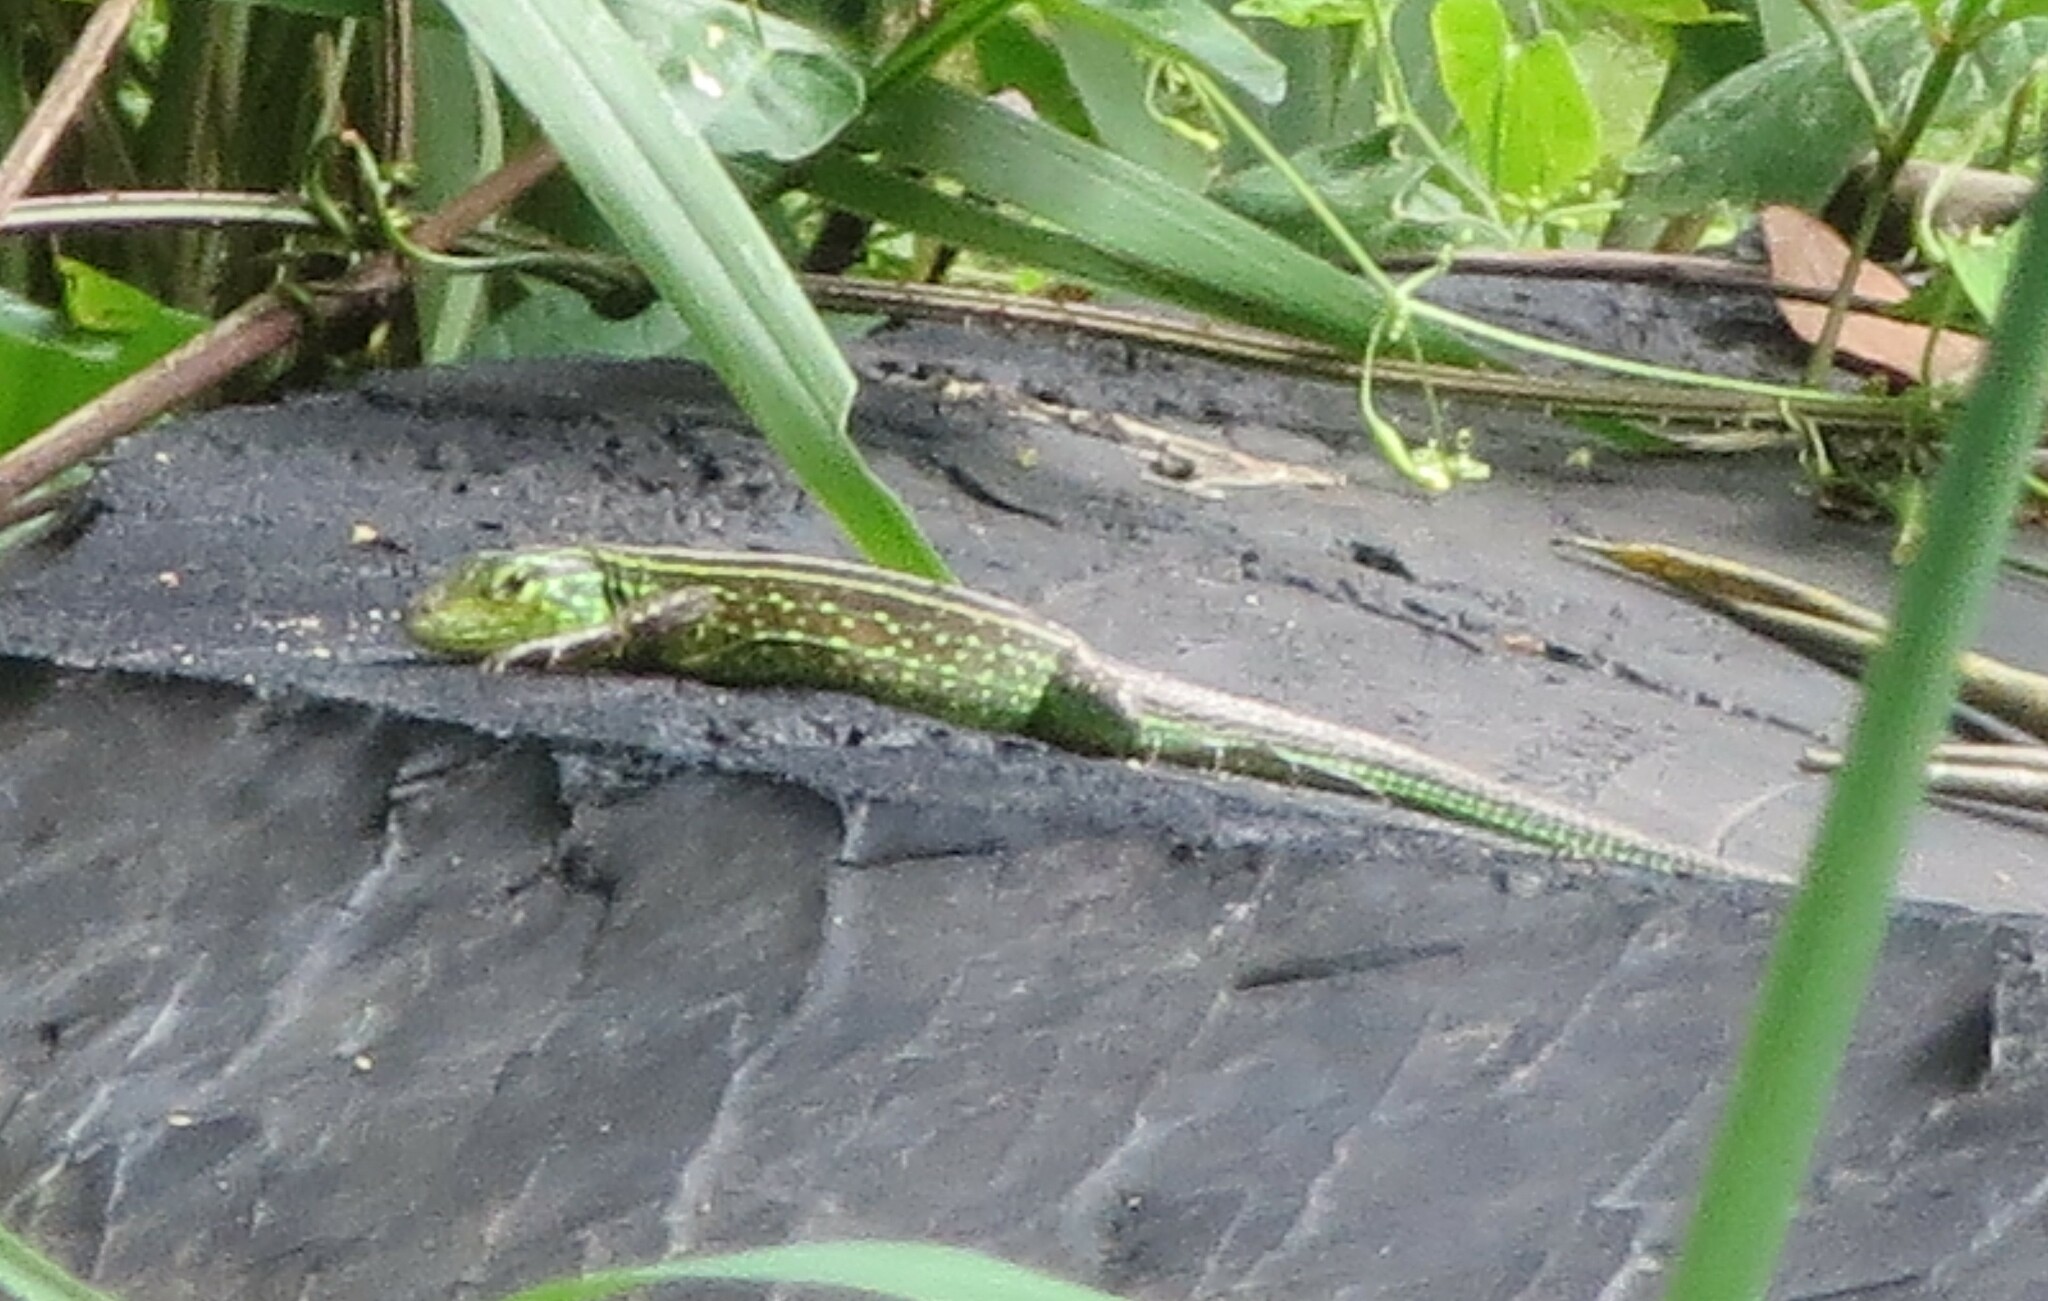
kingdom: Animalia
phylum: Chordata
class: Squamata
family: Teiidae
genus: Cnemidophorus
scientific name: Cnemidophorus gaigei
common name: Gaige’s rainbow lizard
